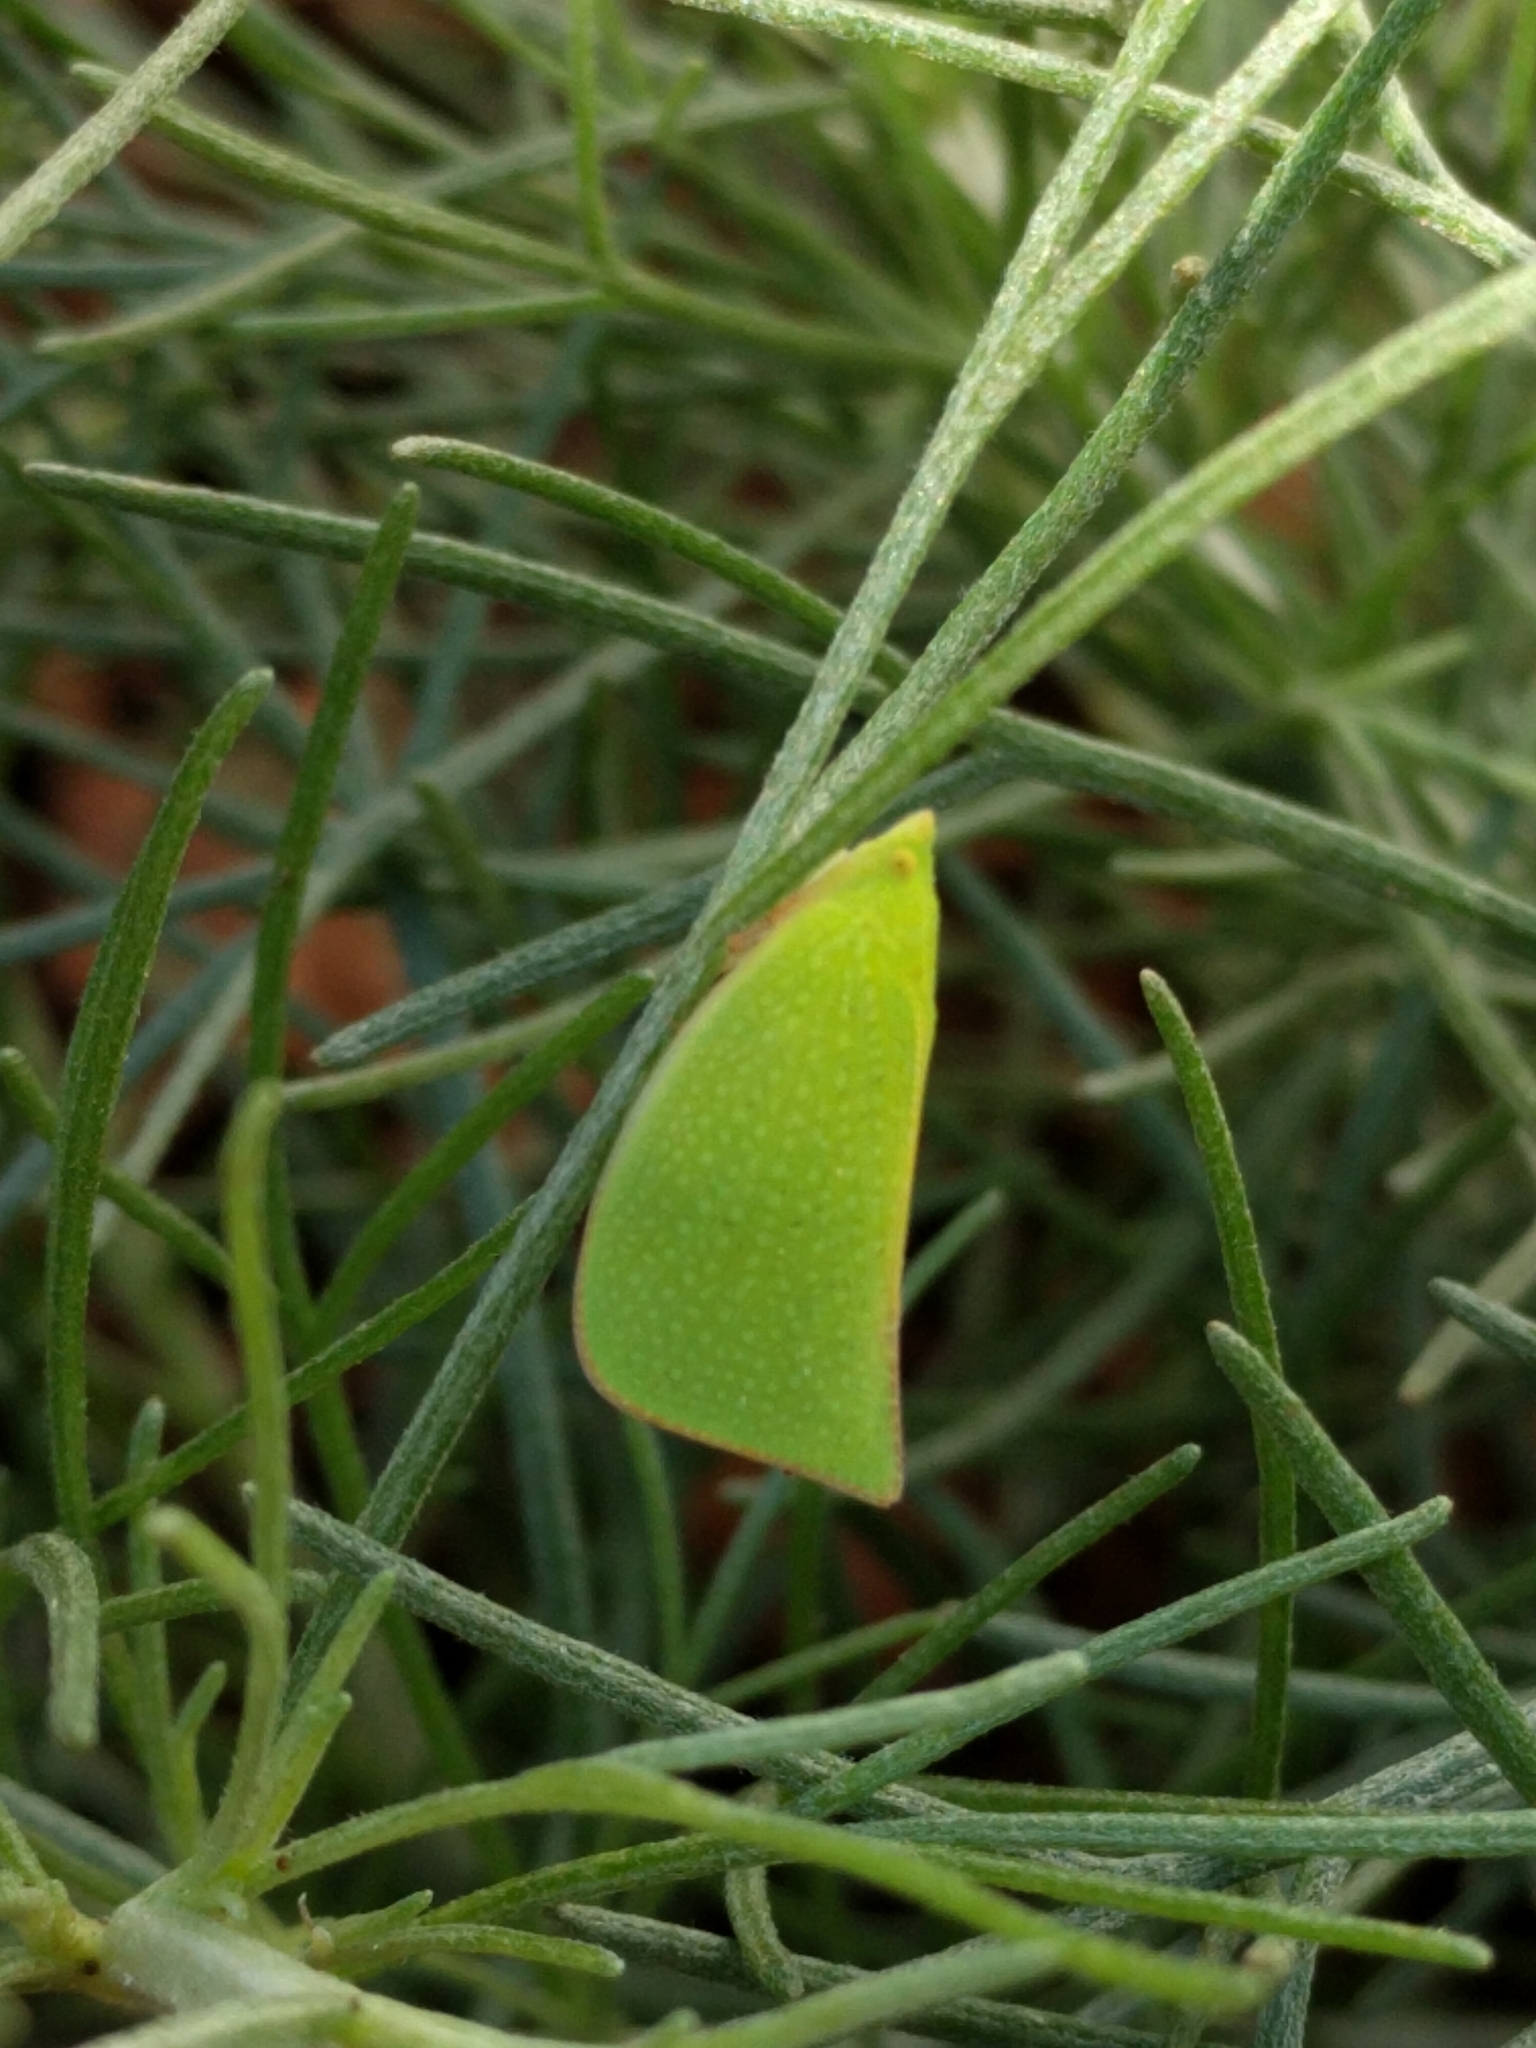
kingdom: Animalia
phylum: Arthropoda
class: Insecta
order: Hemiptera
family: Flatidae
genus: Siphanta
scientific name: Siphanta acuta
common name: Torpedo bug
